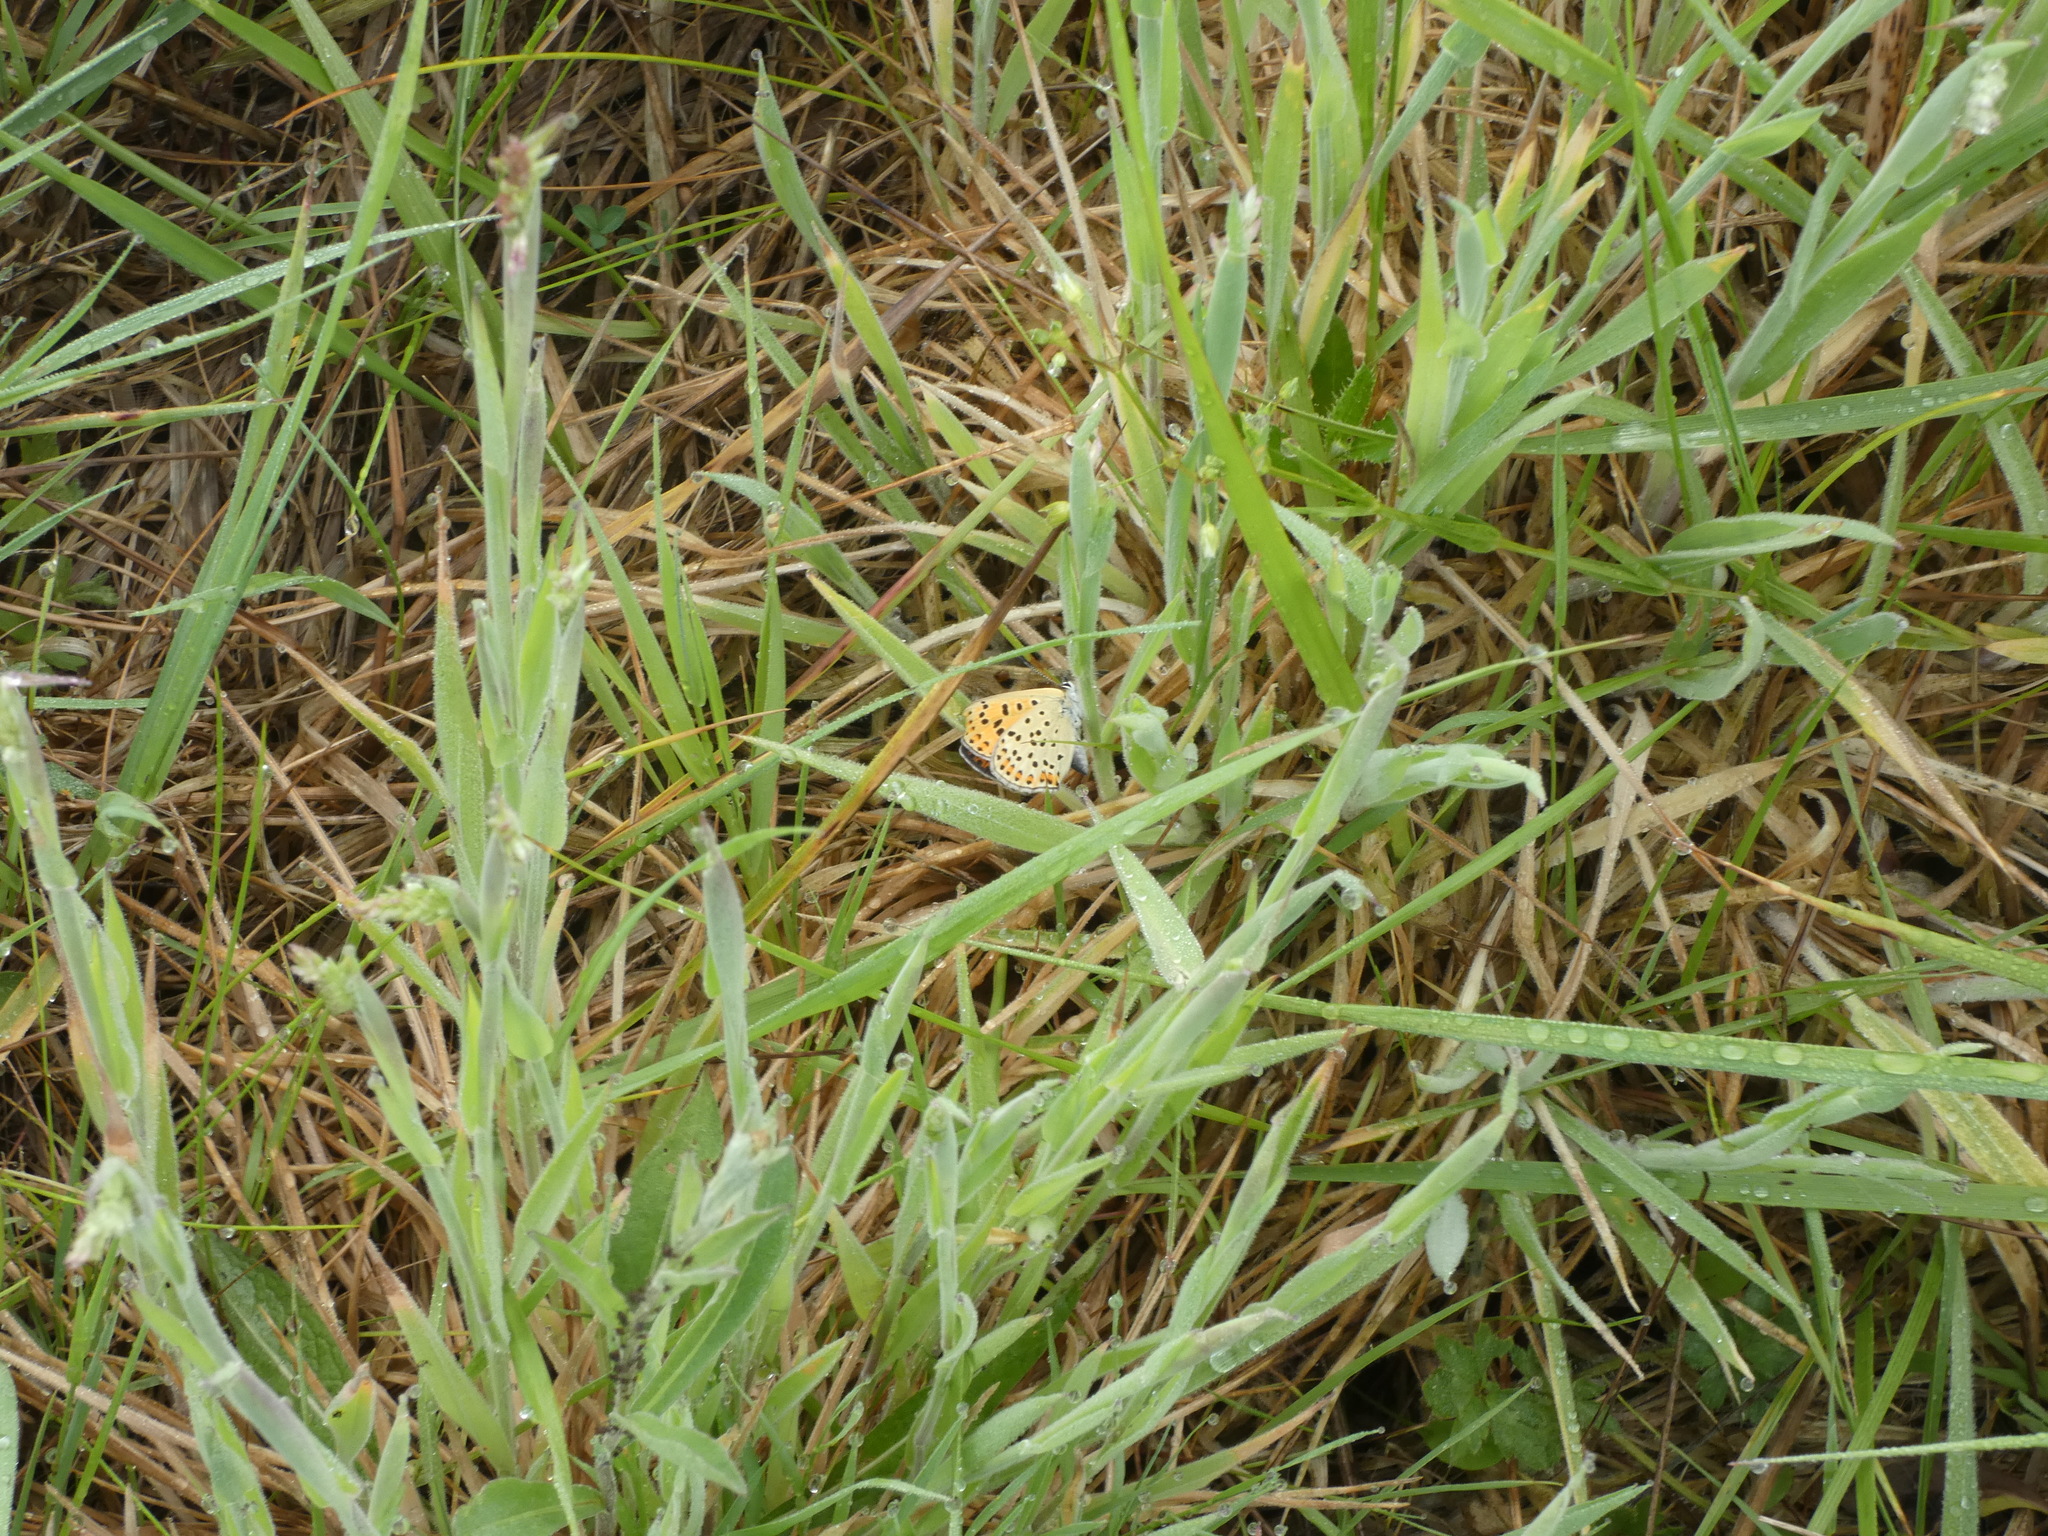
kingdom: Animalia
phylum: Arthropoda
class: Insecta
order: Lepidoptera
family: Lycaenidae
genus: Loweia
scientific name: Loweia tityrus
